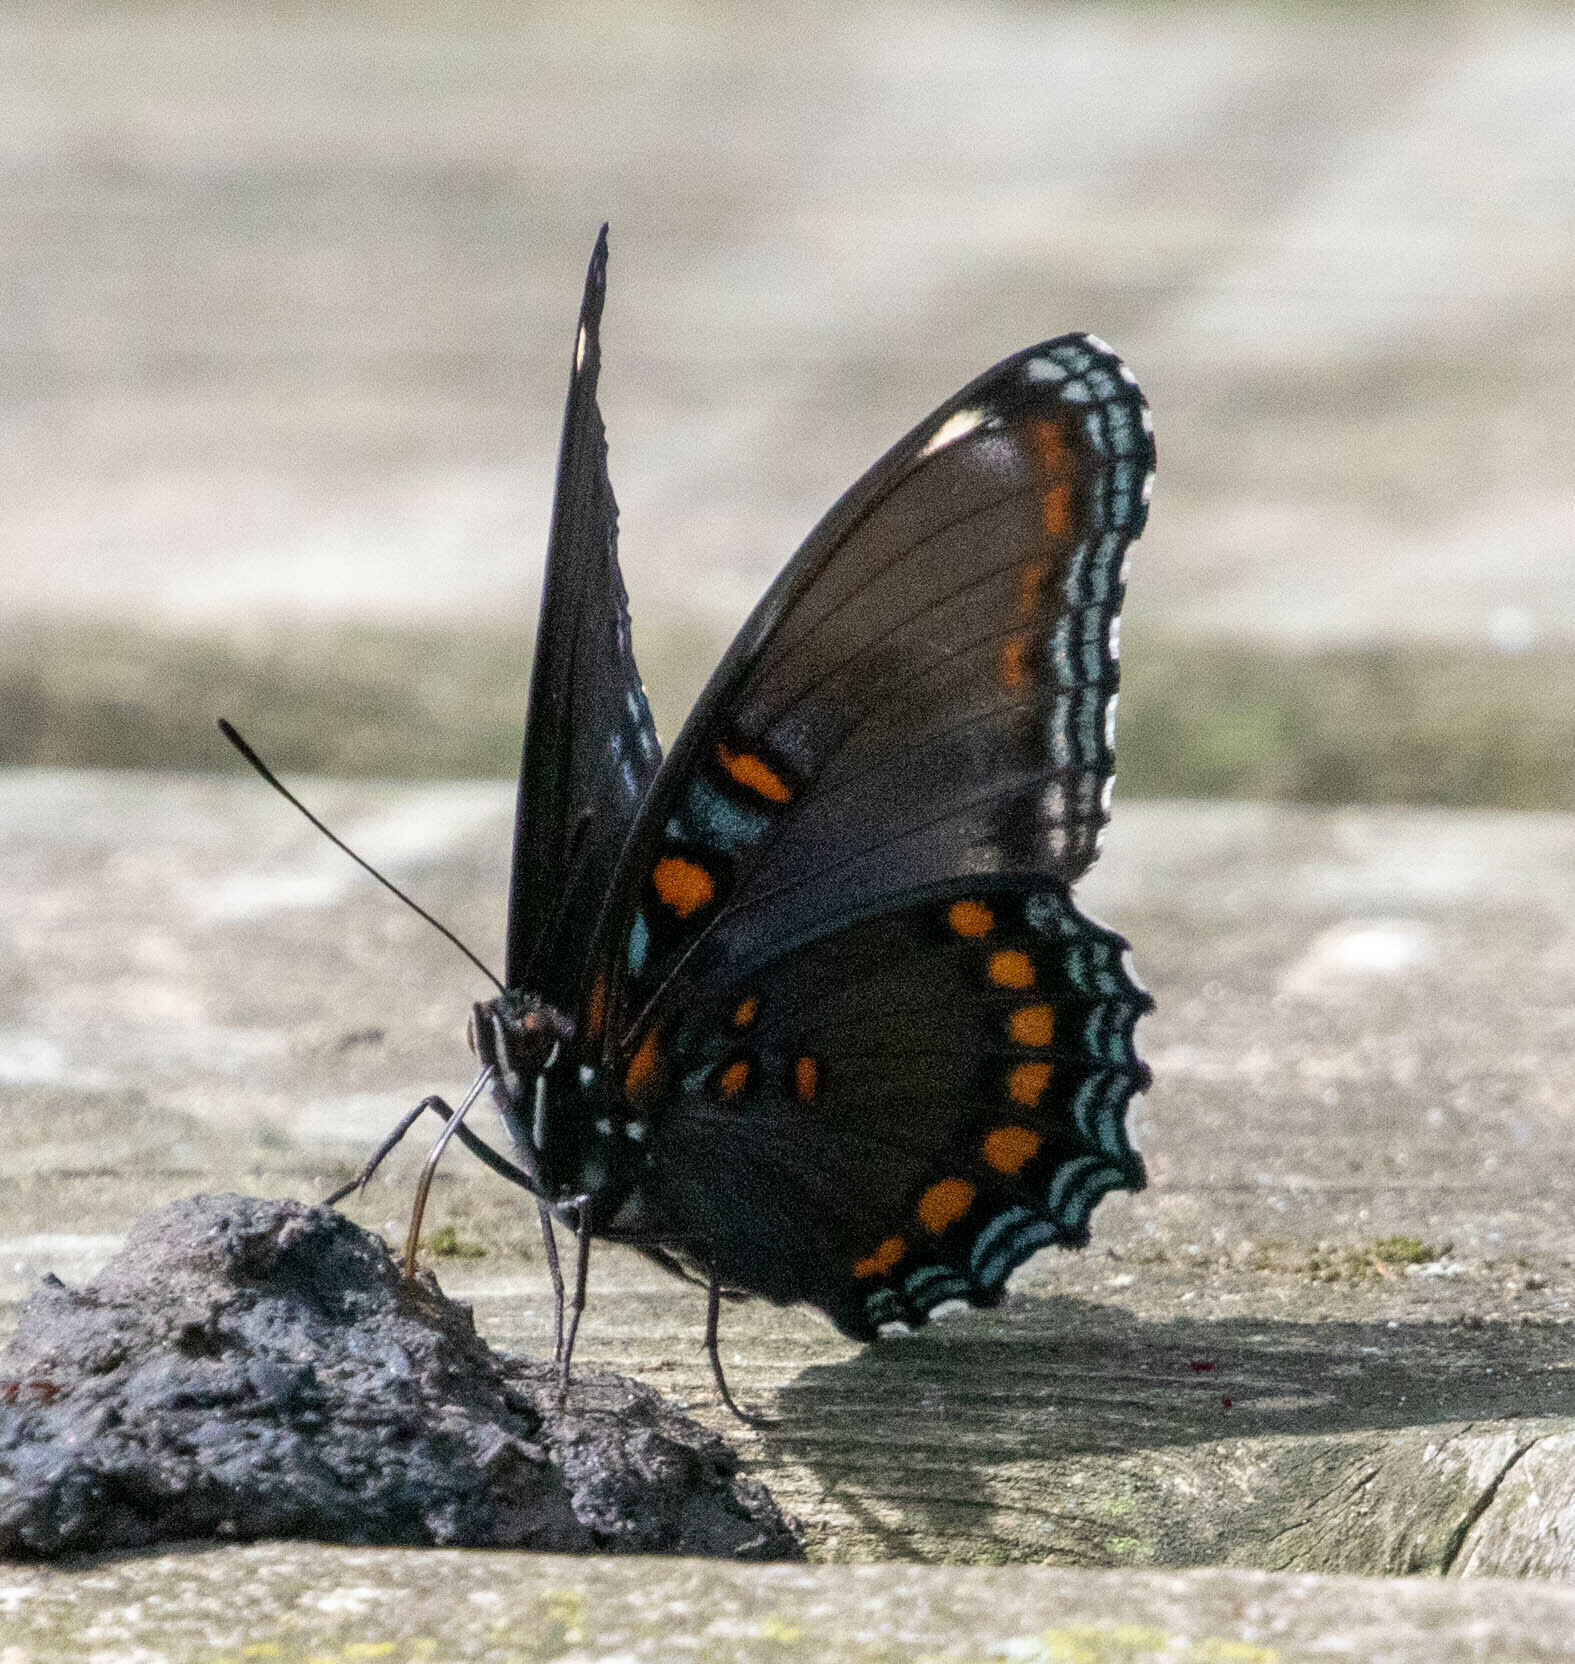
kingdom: Animalia
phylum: Arthropoda
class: Insecta
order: Lepidoptera
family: Nymphalidae
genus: Limenitis
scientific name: Limenitis astyanax
